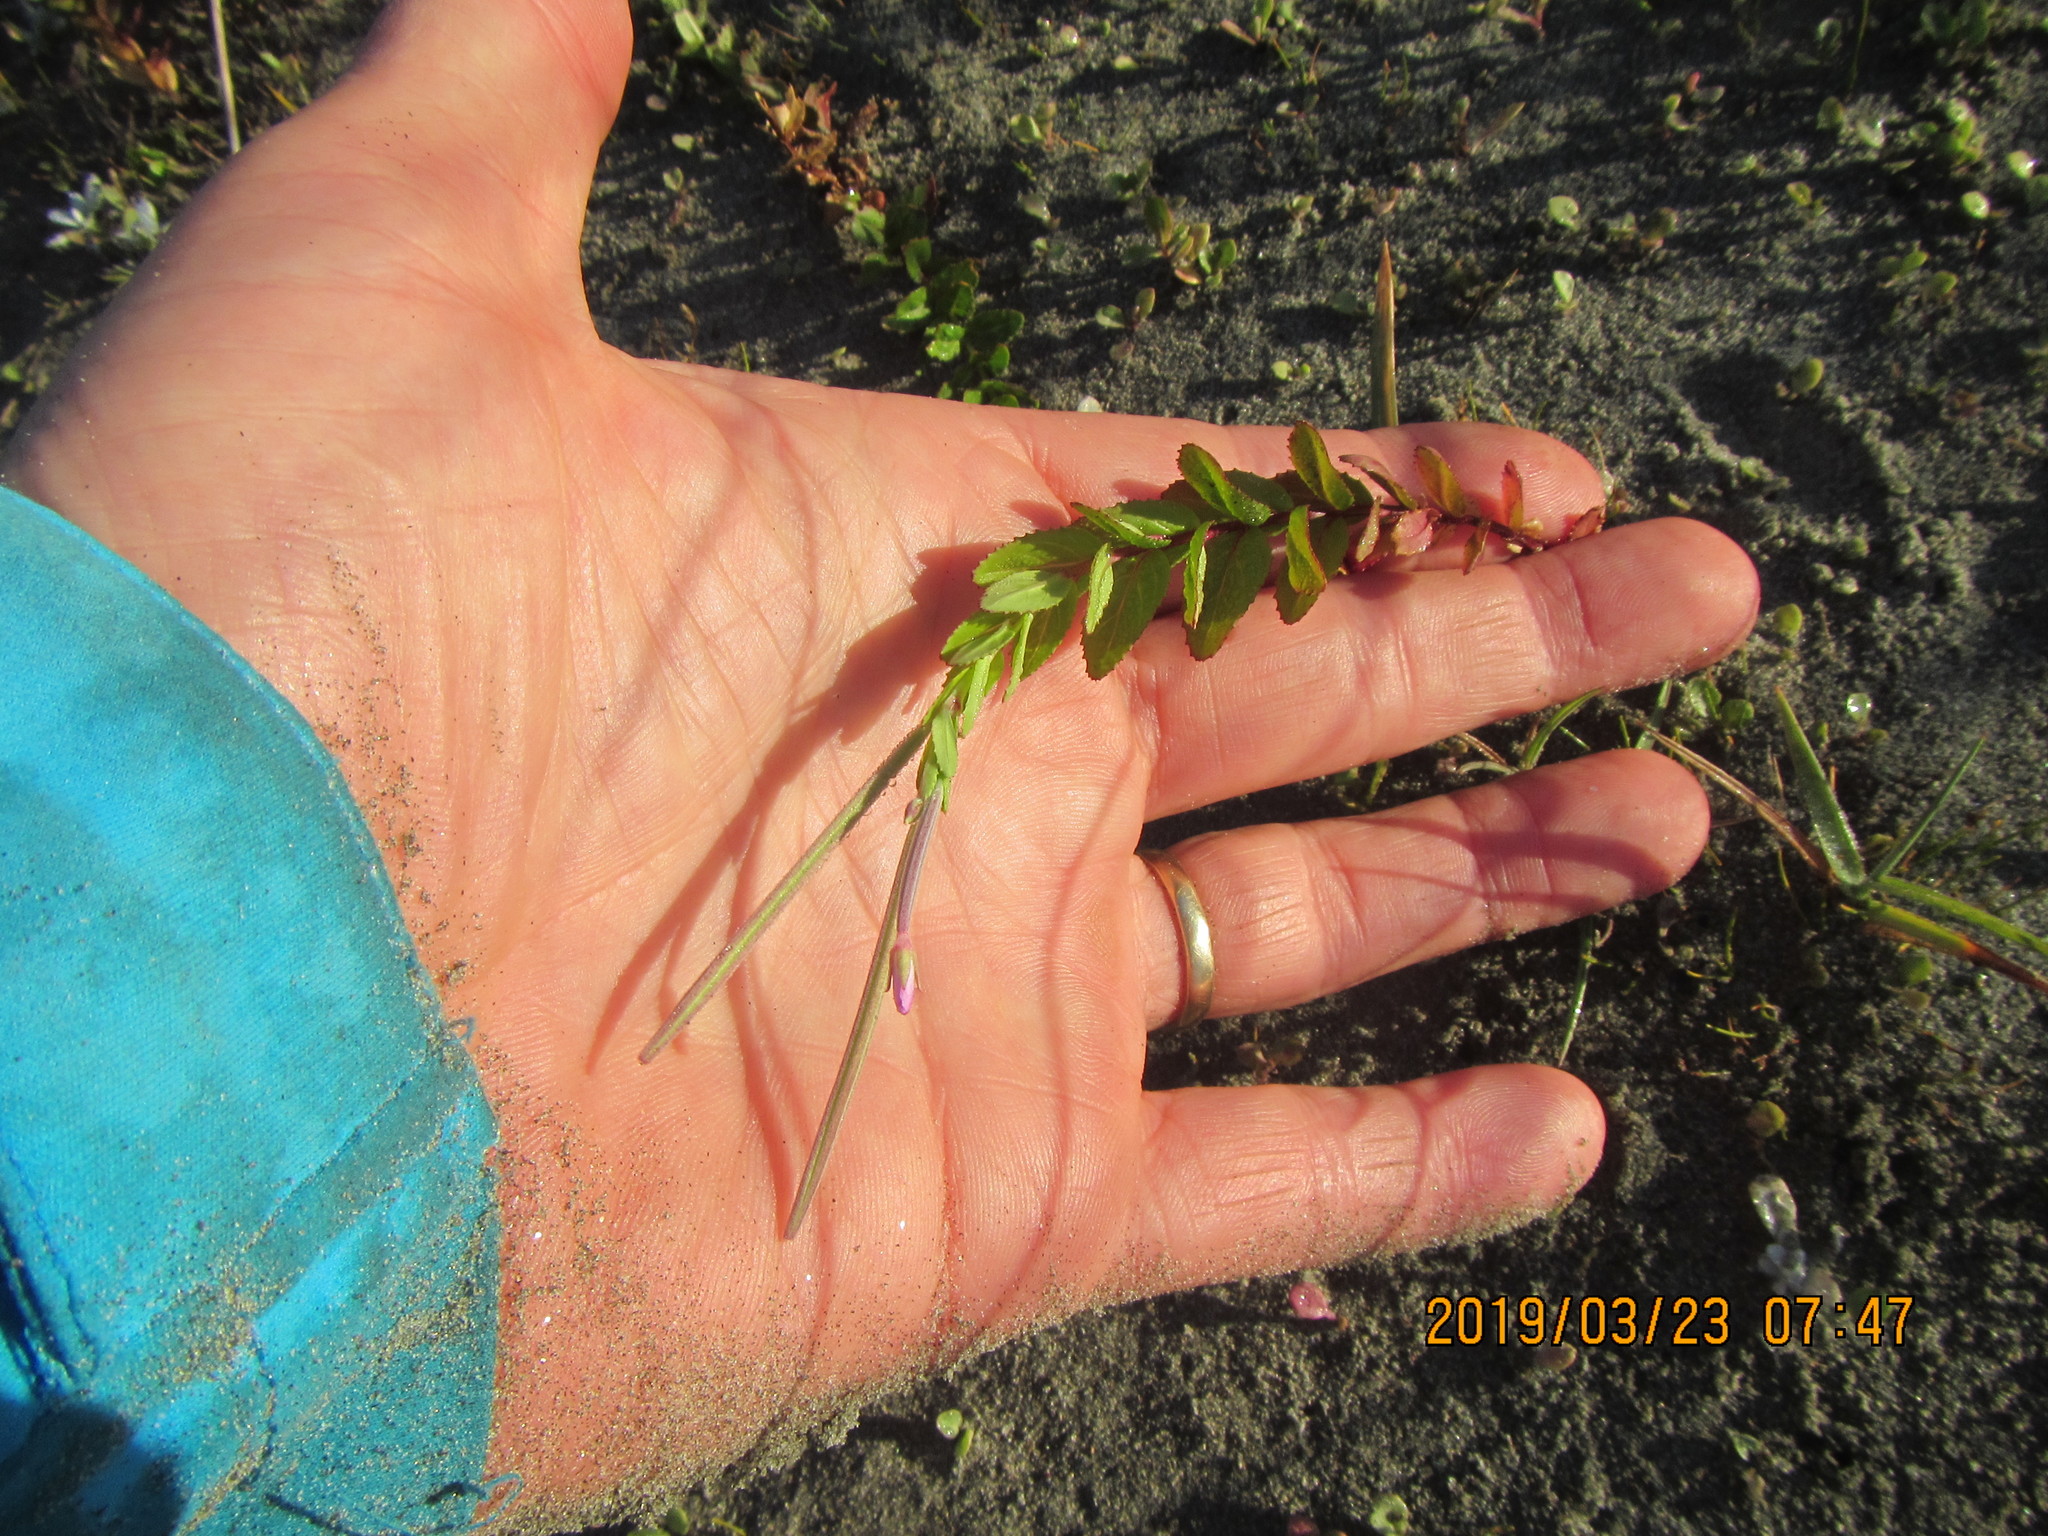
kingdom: Plantae
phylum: Tracheophyta
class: Magnoliopsida
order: Myrtales
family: Onagraceae
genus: Epilobium
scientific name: Epilobium billardiereanum
